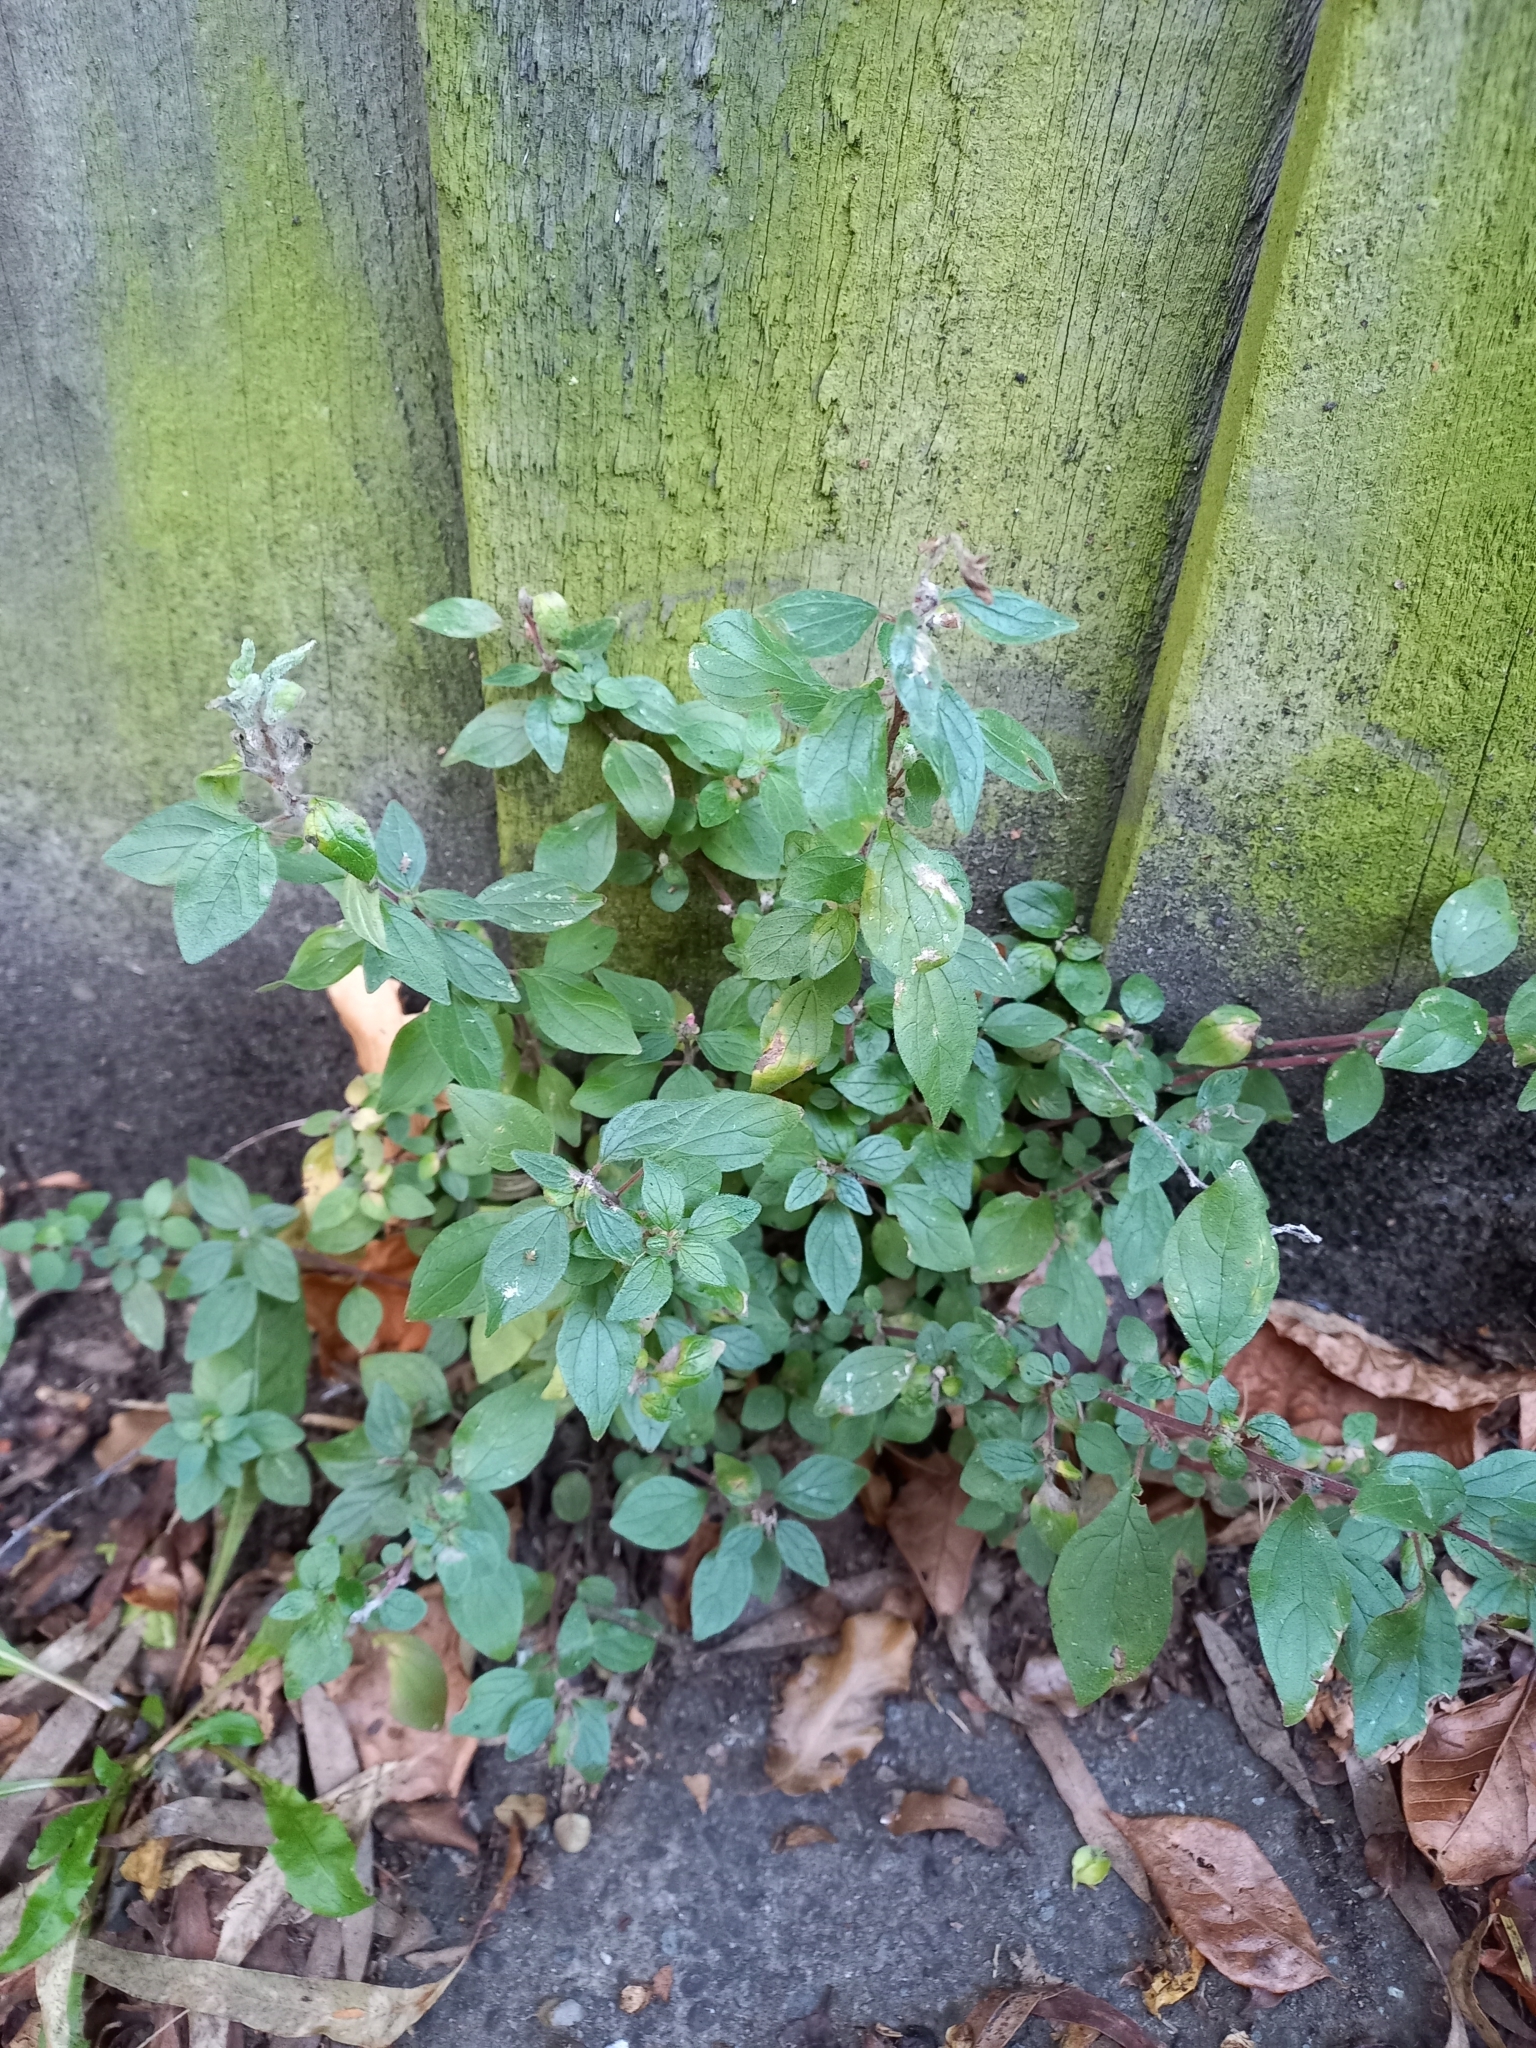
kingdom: Plantae
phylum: Tracheophyta
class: Magnoliopsida
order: Rosales
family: Urticaceae
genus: Parietaria
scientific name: Parietaria judaica
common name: Pellitory-of-the-wall
